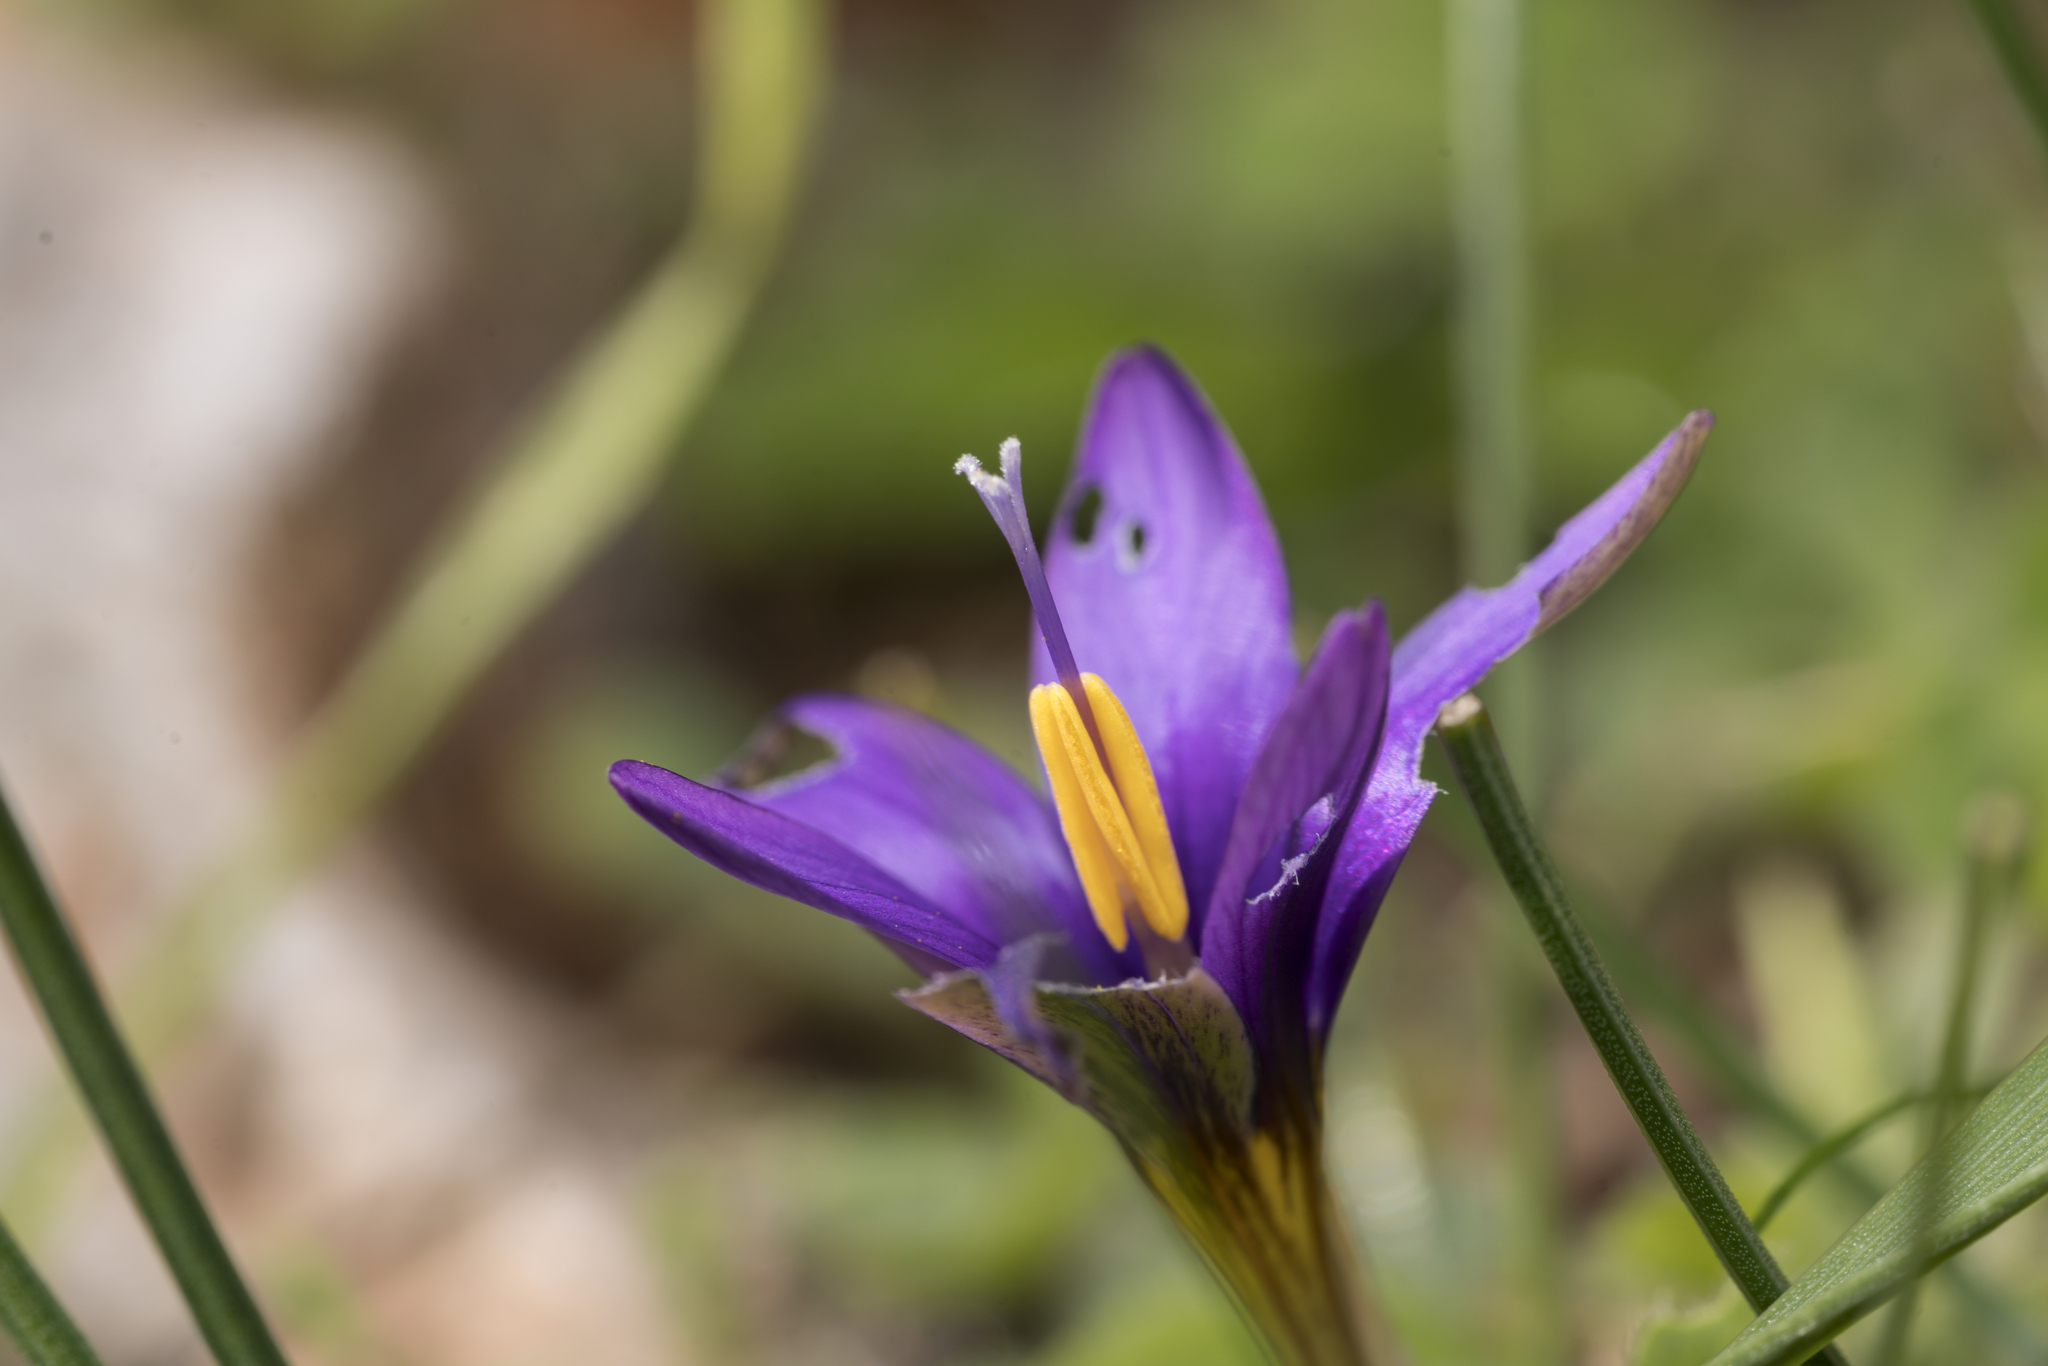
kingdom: Plantae
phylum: Tracheophyta
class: Liliopsida
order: Asparagales
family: Iridaceae
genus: Romulea
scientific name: Romulea tempskyana
